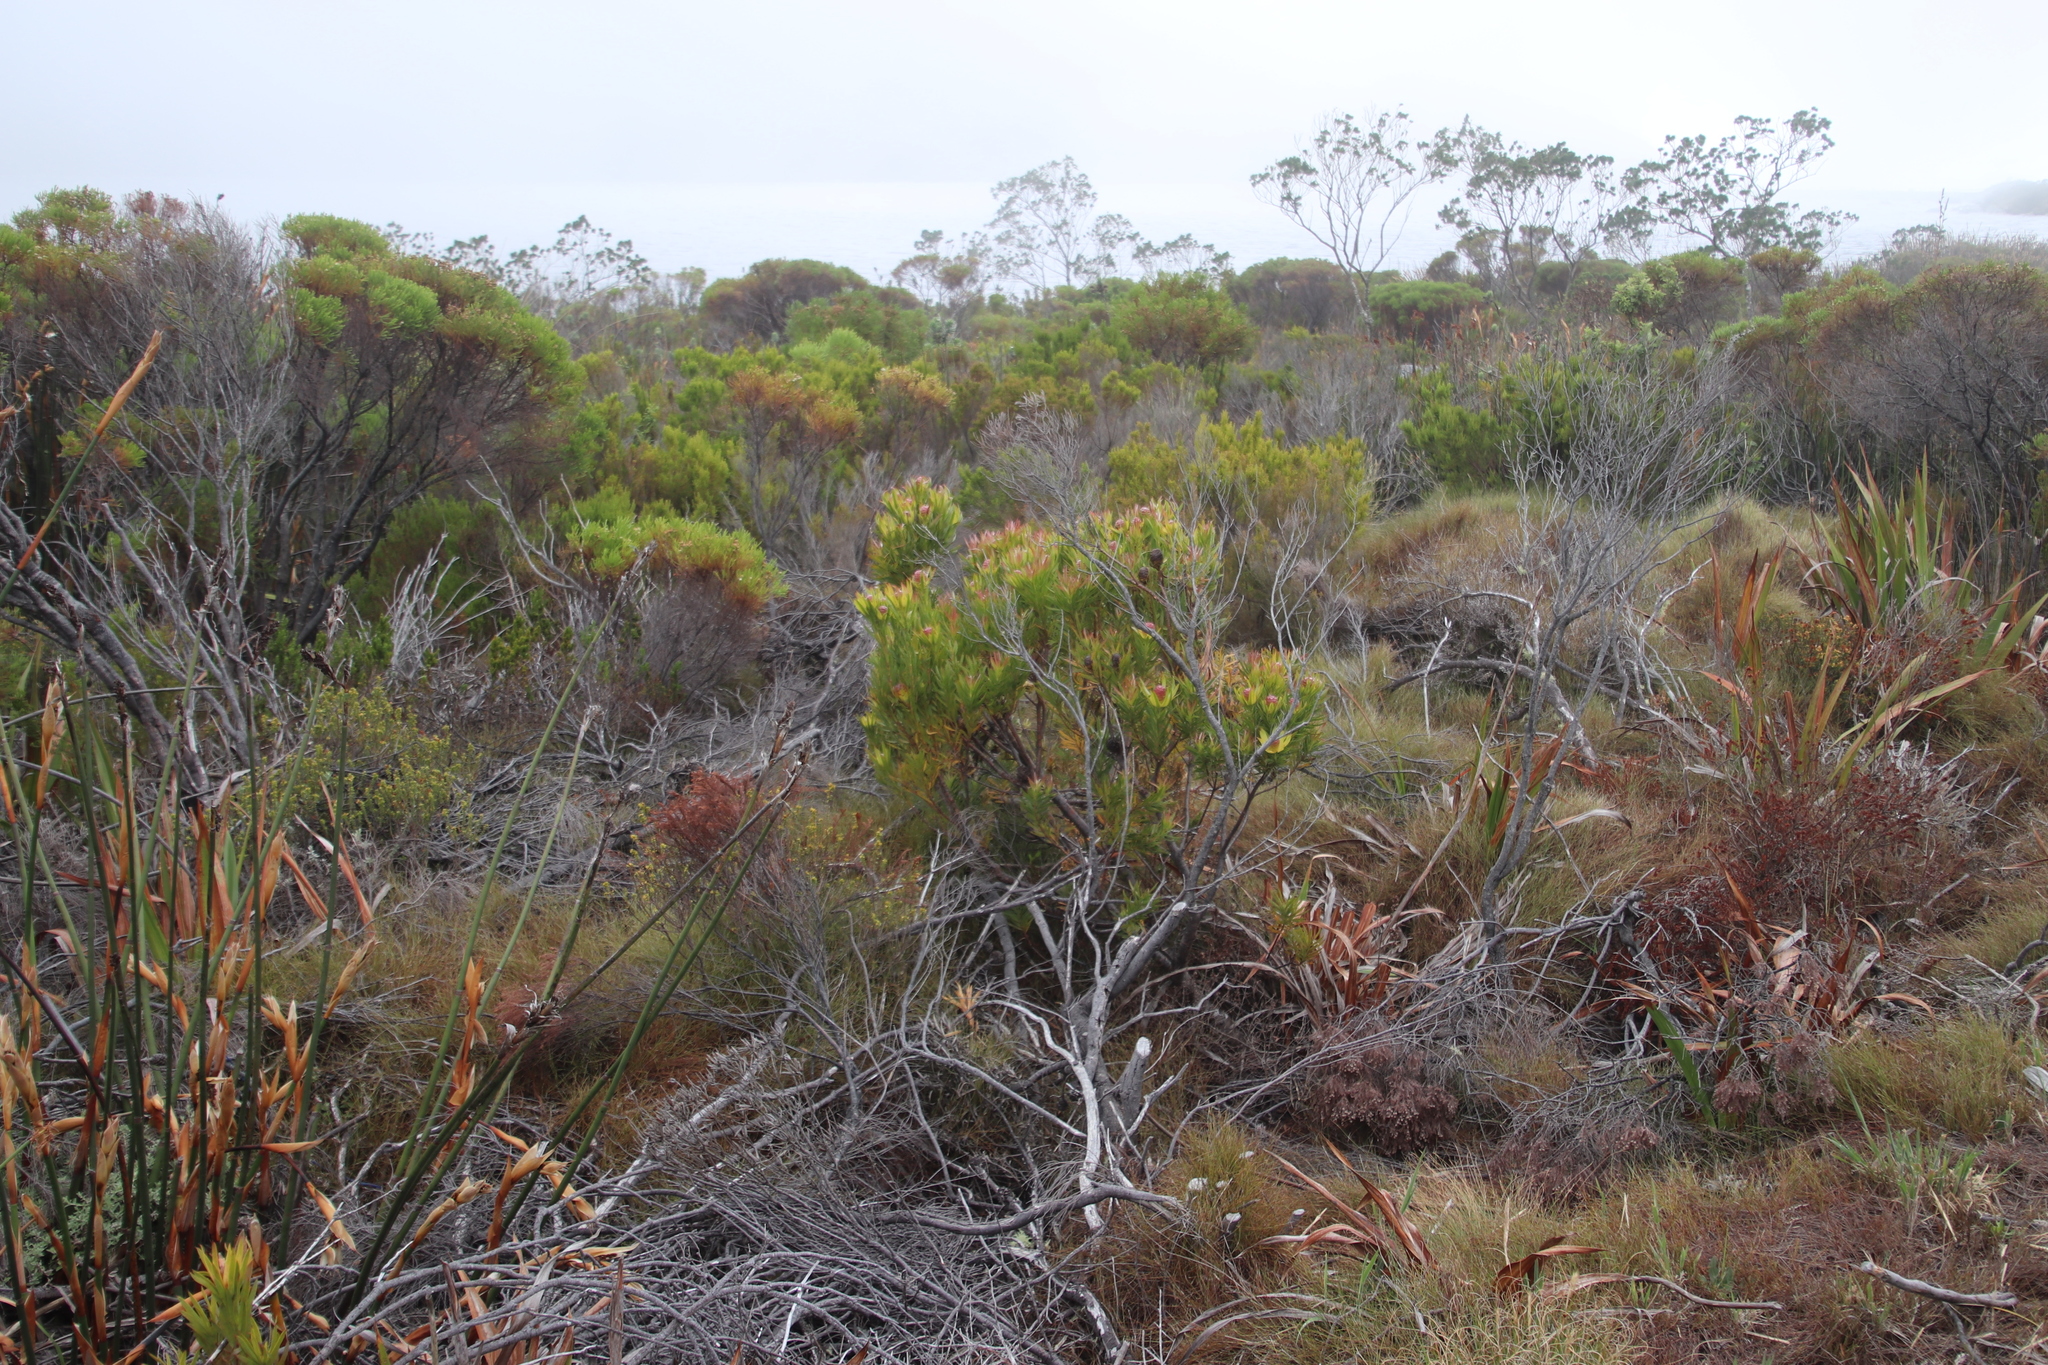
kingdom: Plantae
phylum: Tracheophyta
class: Magnoliopsida
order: Proteales
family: Proteaceae
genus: Leucadendron
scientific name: Leucadendron xanthoconus
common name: Sickle-leaf conebush
